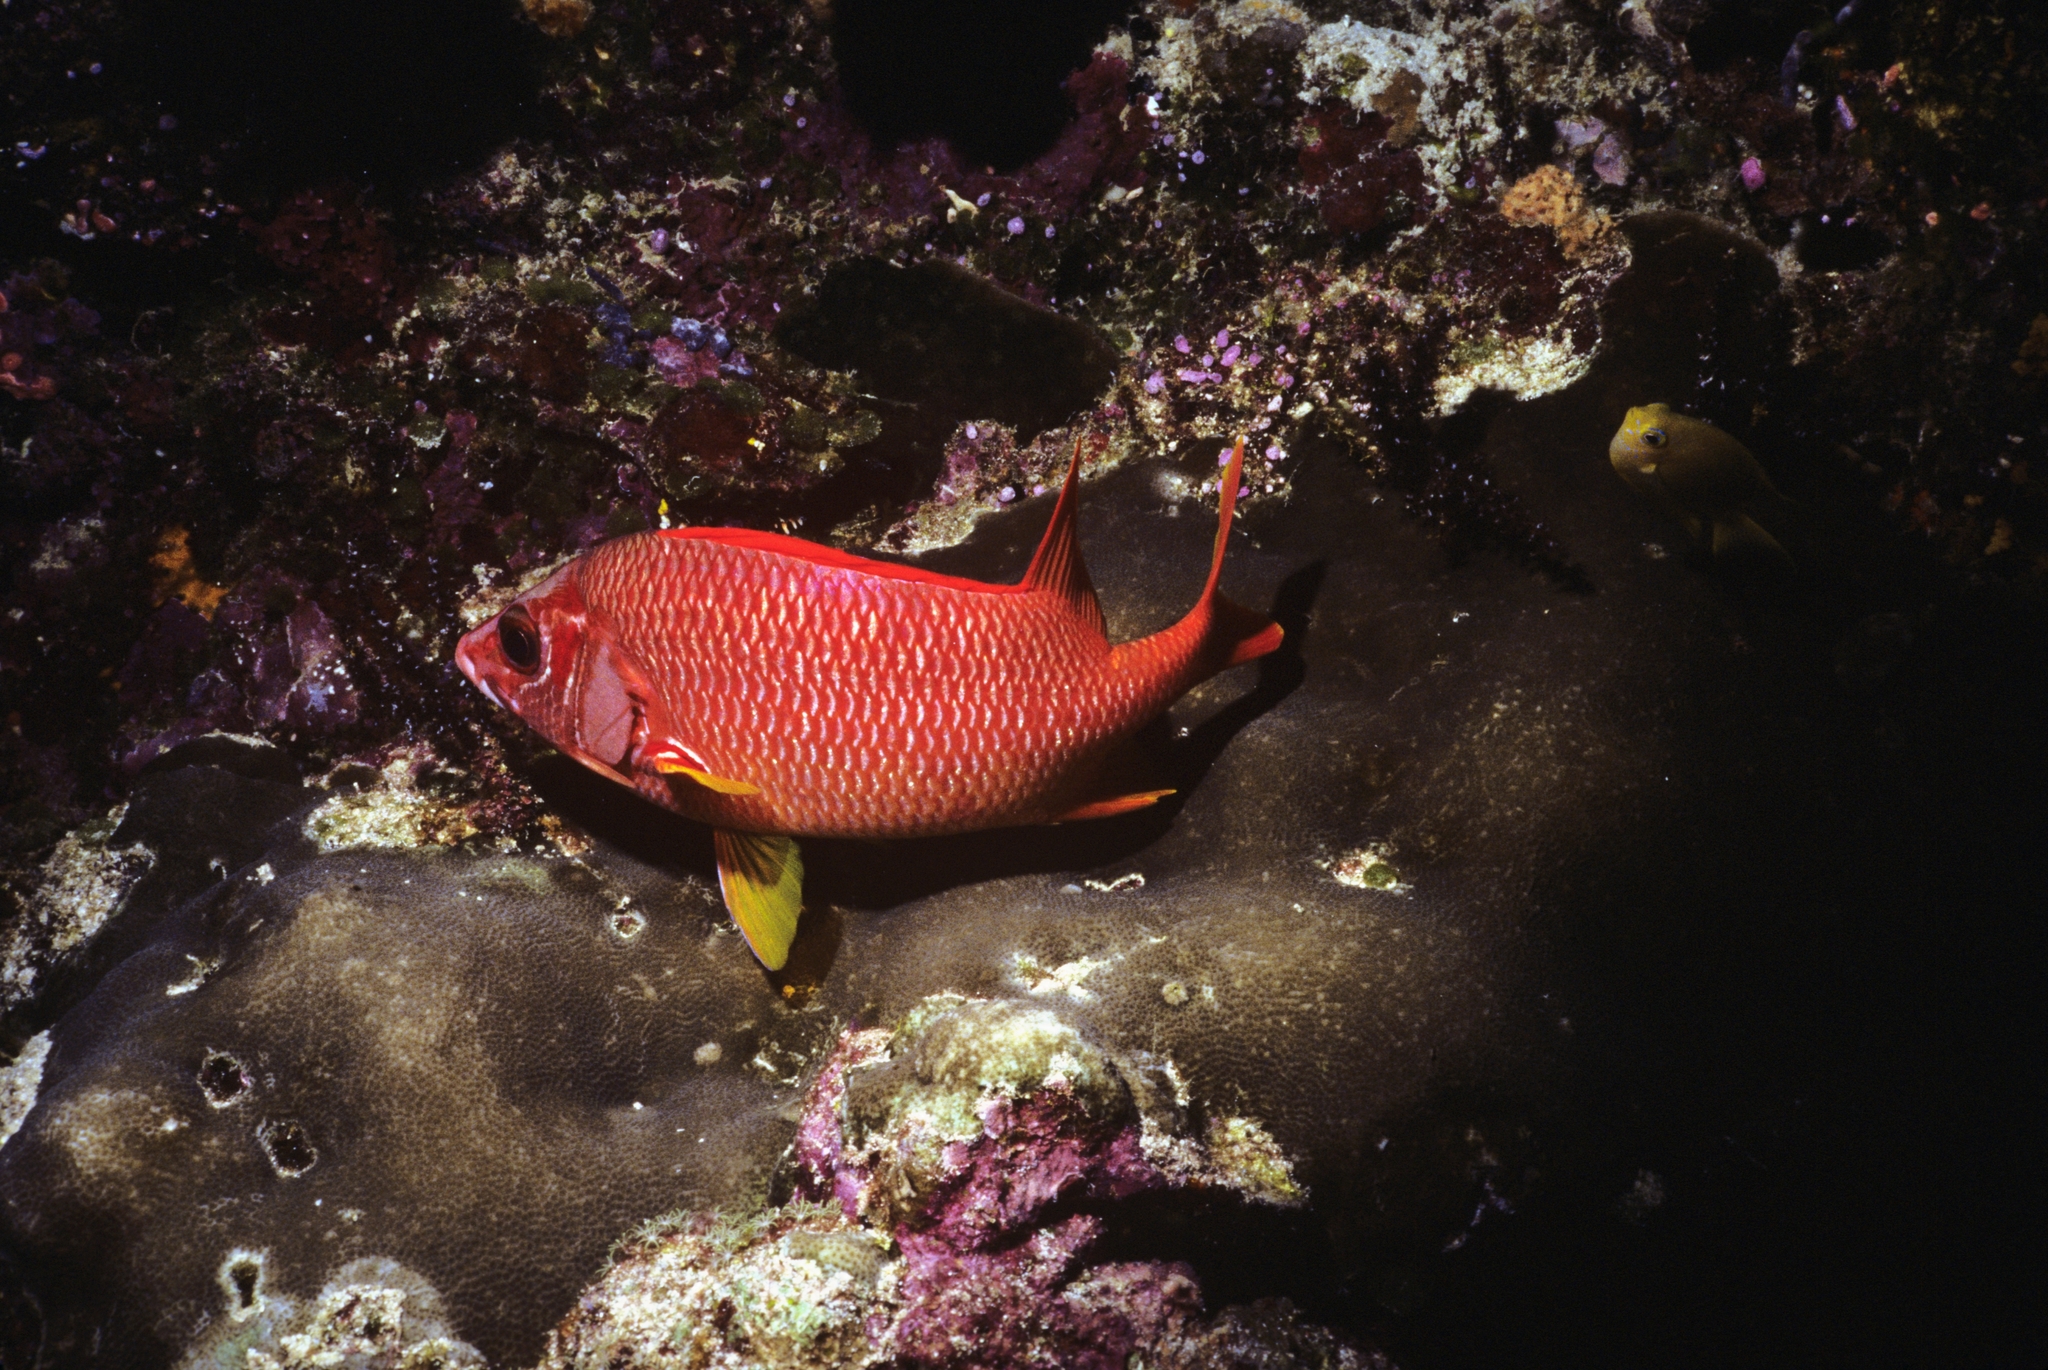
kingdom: Animalia
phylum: Chordata
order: Beryciformes
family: Holocentridae
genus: Sargocentron
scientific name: Sargocentron spiniferum
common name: Giant squirrelfish
